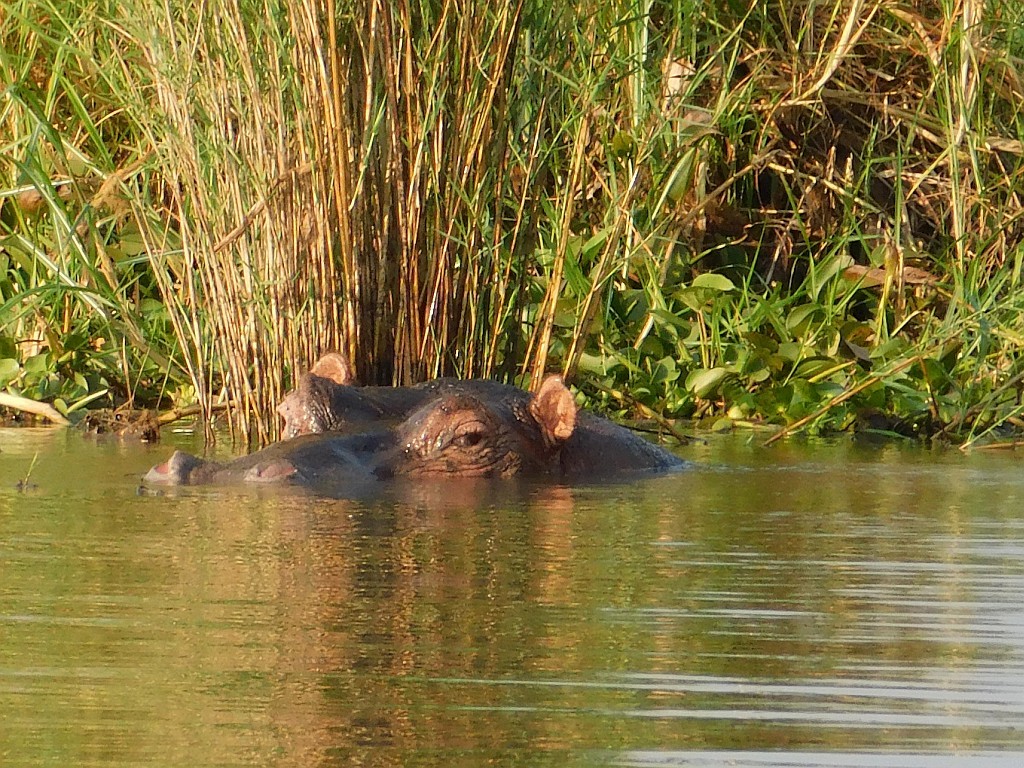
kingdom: Animalia
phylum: Chordata
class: Mammalia
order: Artiodactyla
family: Hippopotamidae
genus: Hippopotamus
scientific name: Hippopotamus amphibius
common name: Common hippopotamus
